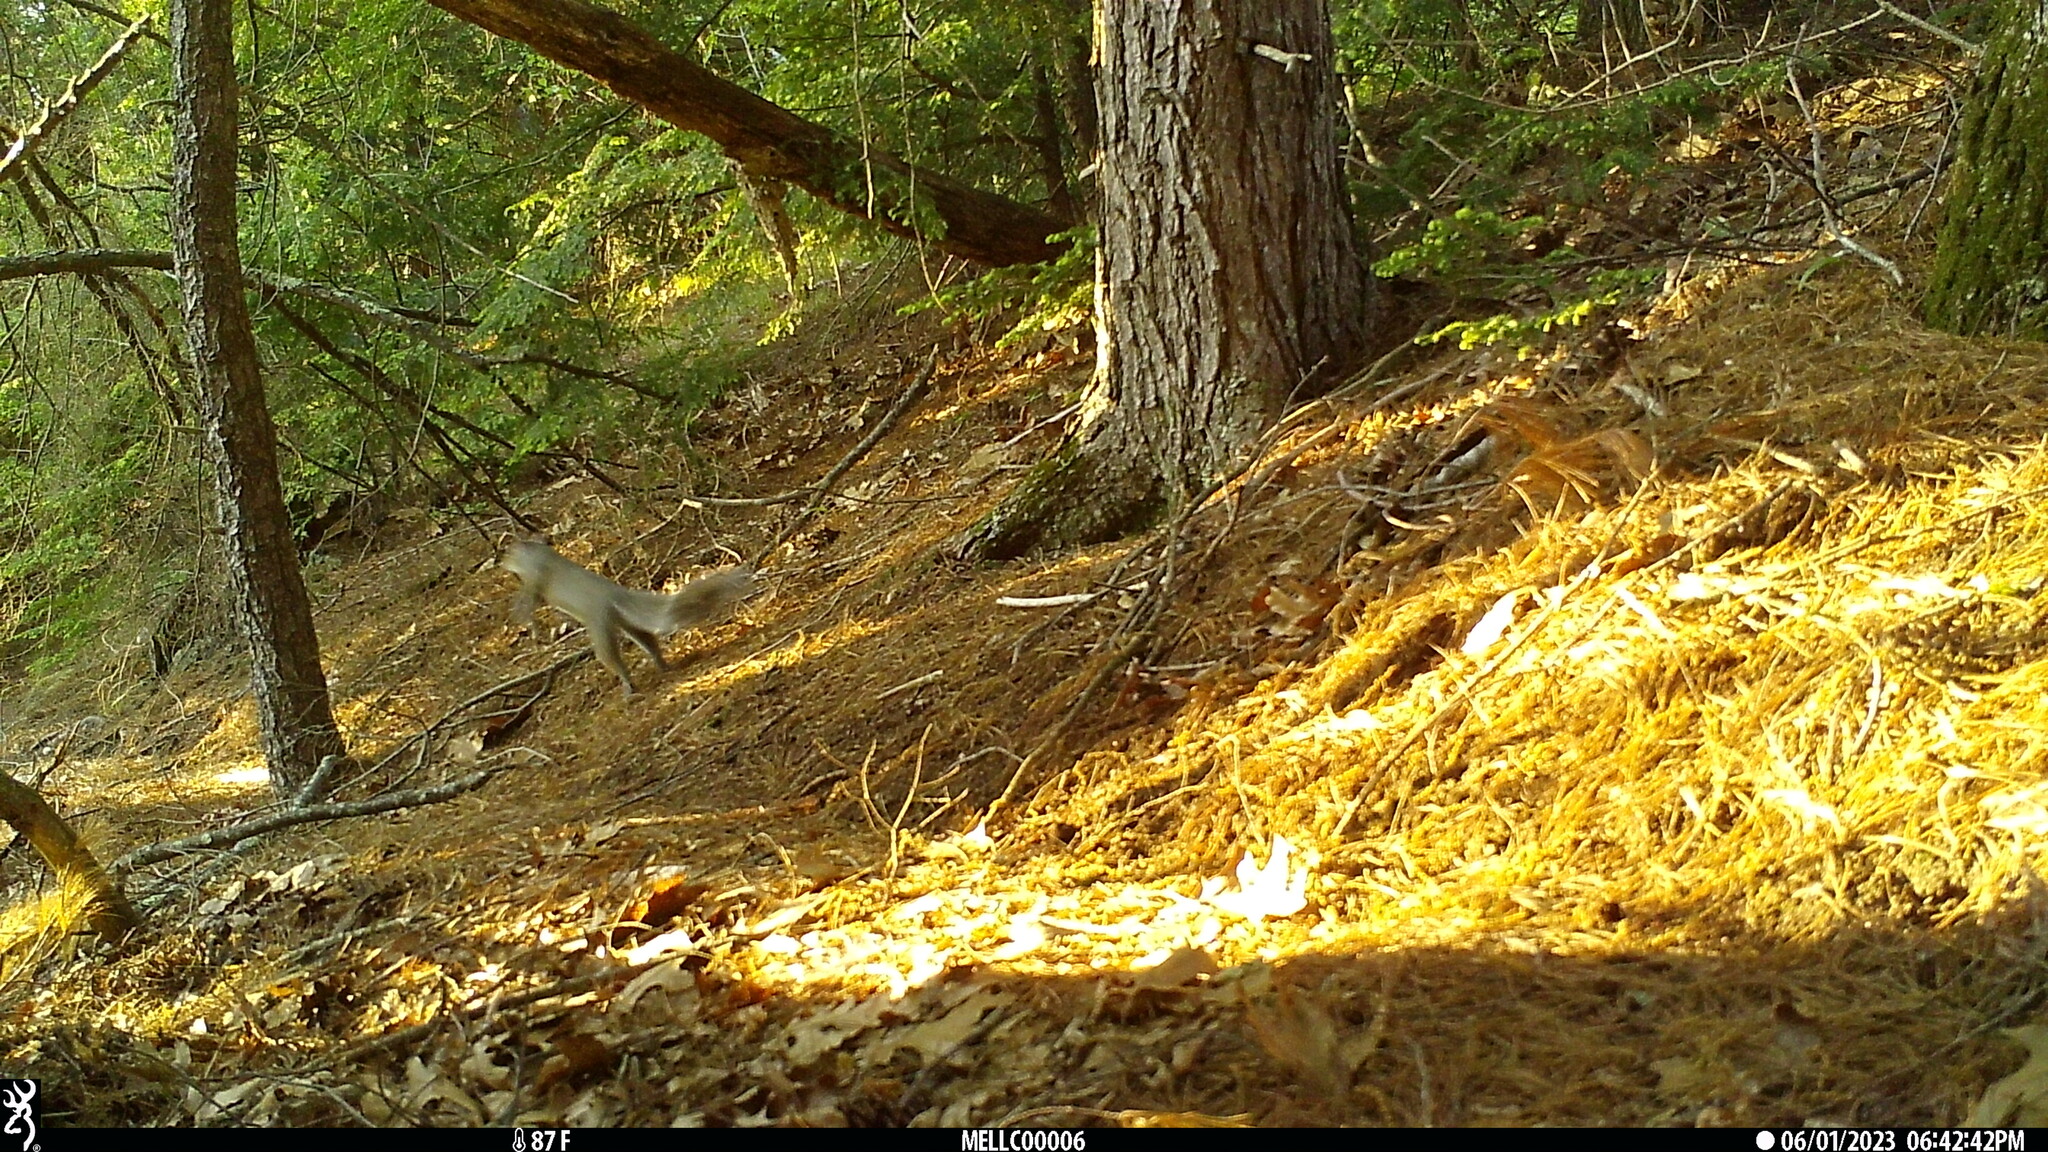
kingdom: Animalia
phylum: Chordata
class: Mammalia
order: Rodentia
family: Sciuridae
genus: Sciurus
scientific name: Sciurus carolinensis
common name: Eastern gray squirrel
